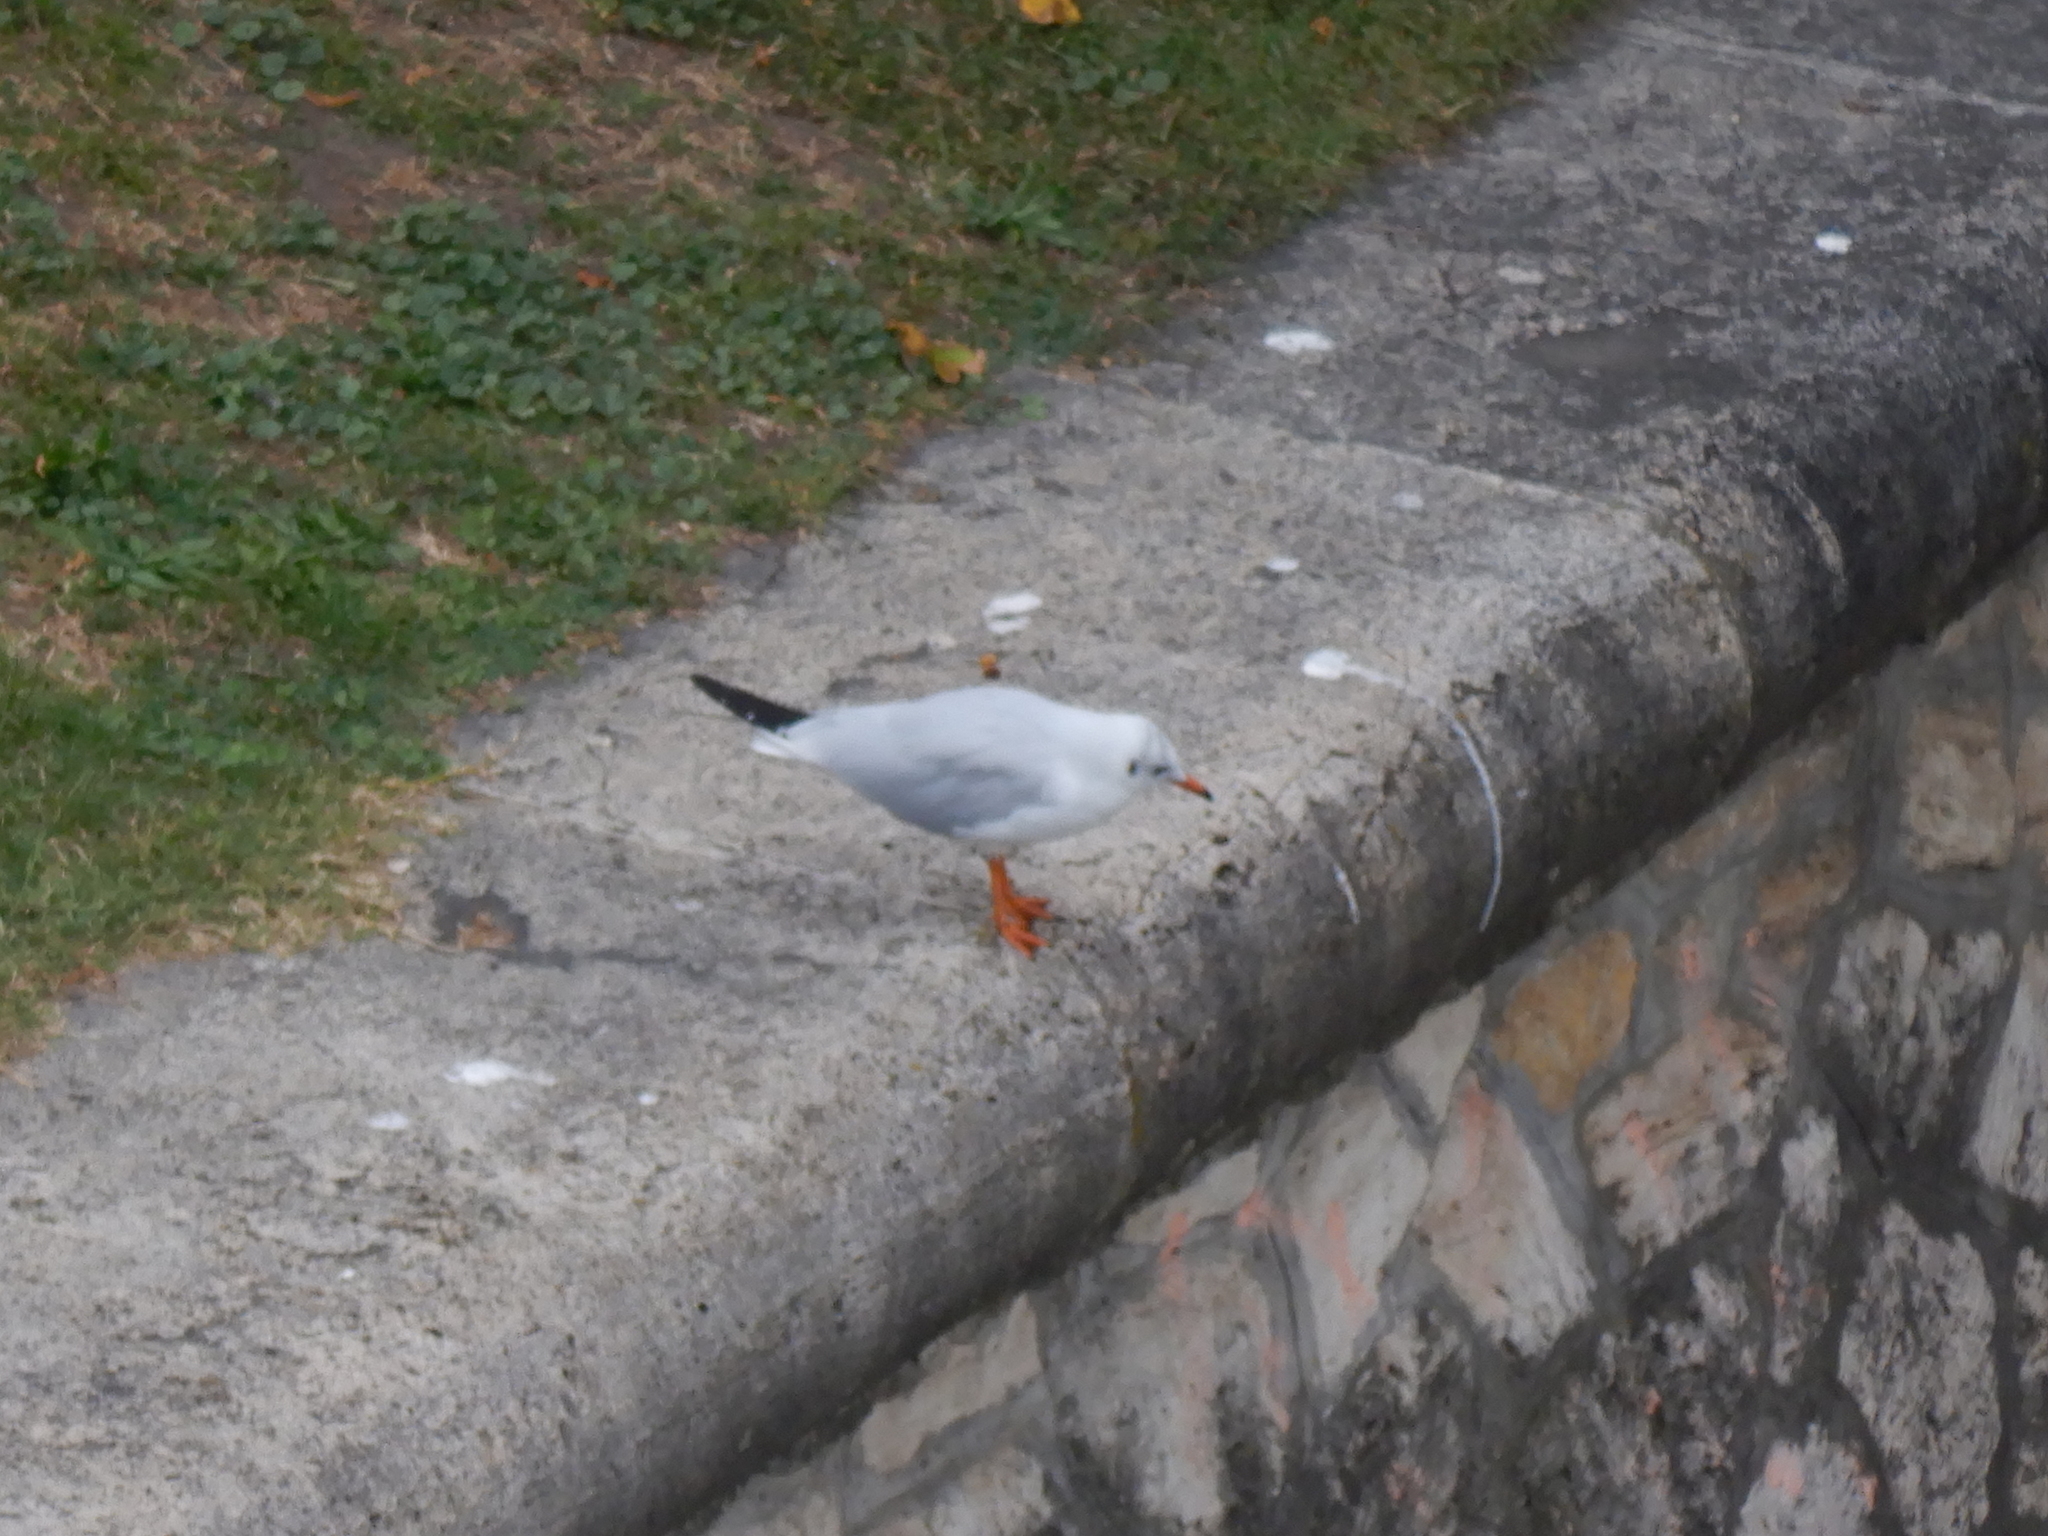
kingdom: Animalia
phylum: Chordata
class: Aves
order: Charadriiformes
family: Laridae
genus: Chroicocephalus
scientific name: Chroicocephalus ridibundus
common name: Black-headed gull
